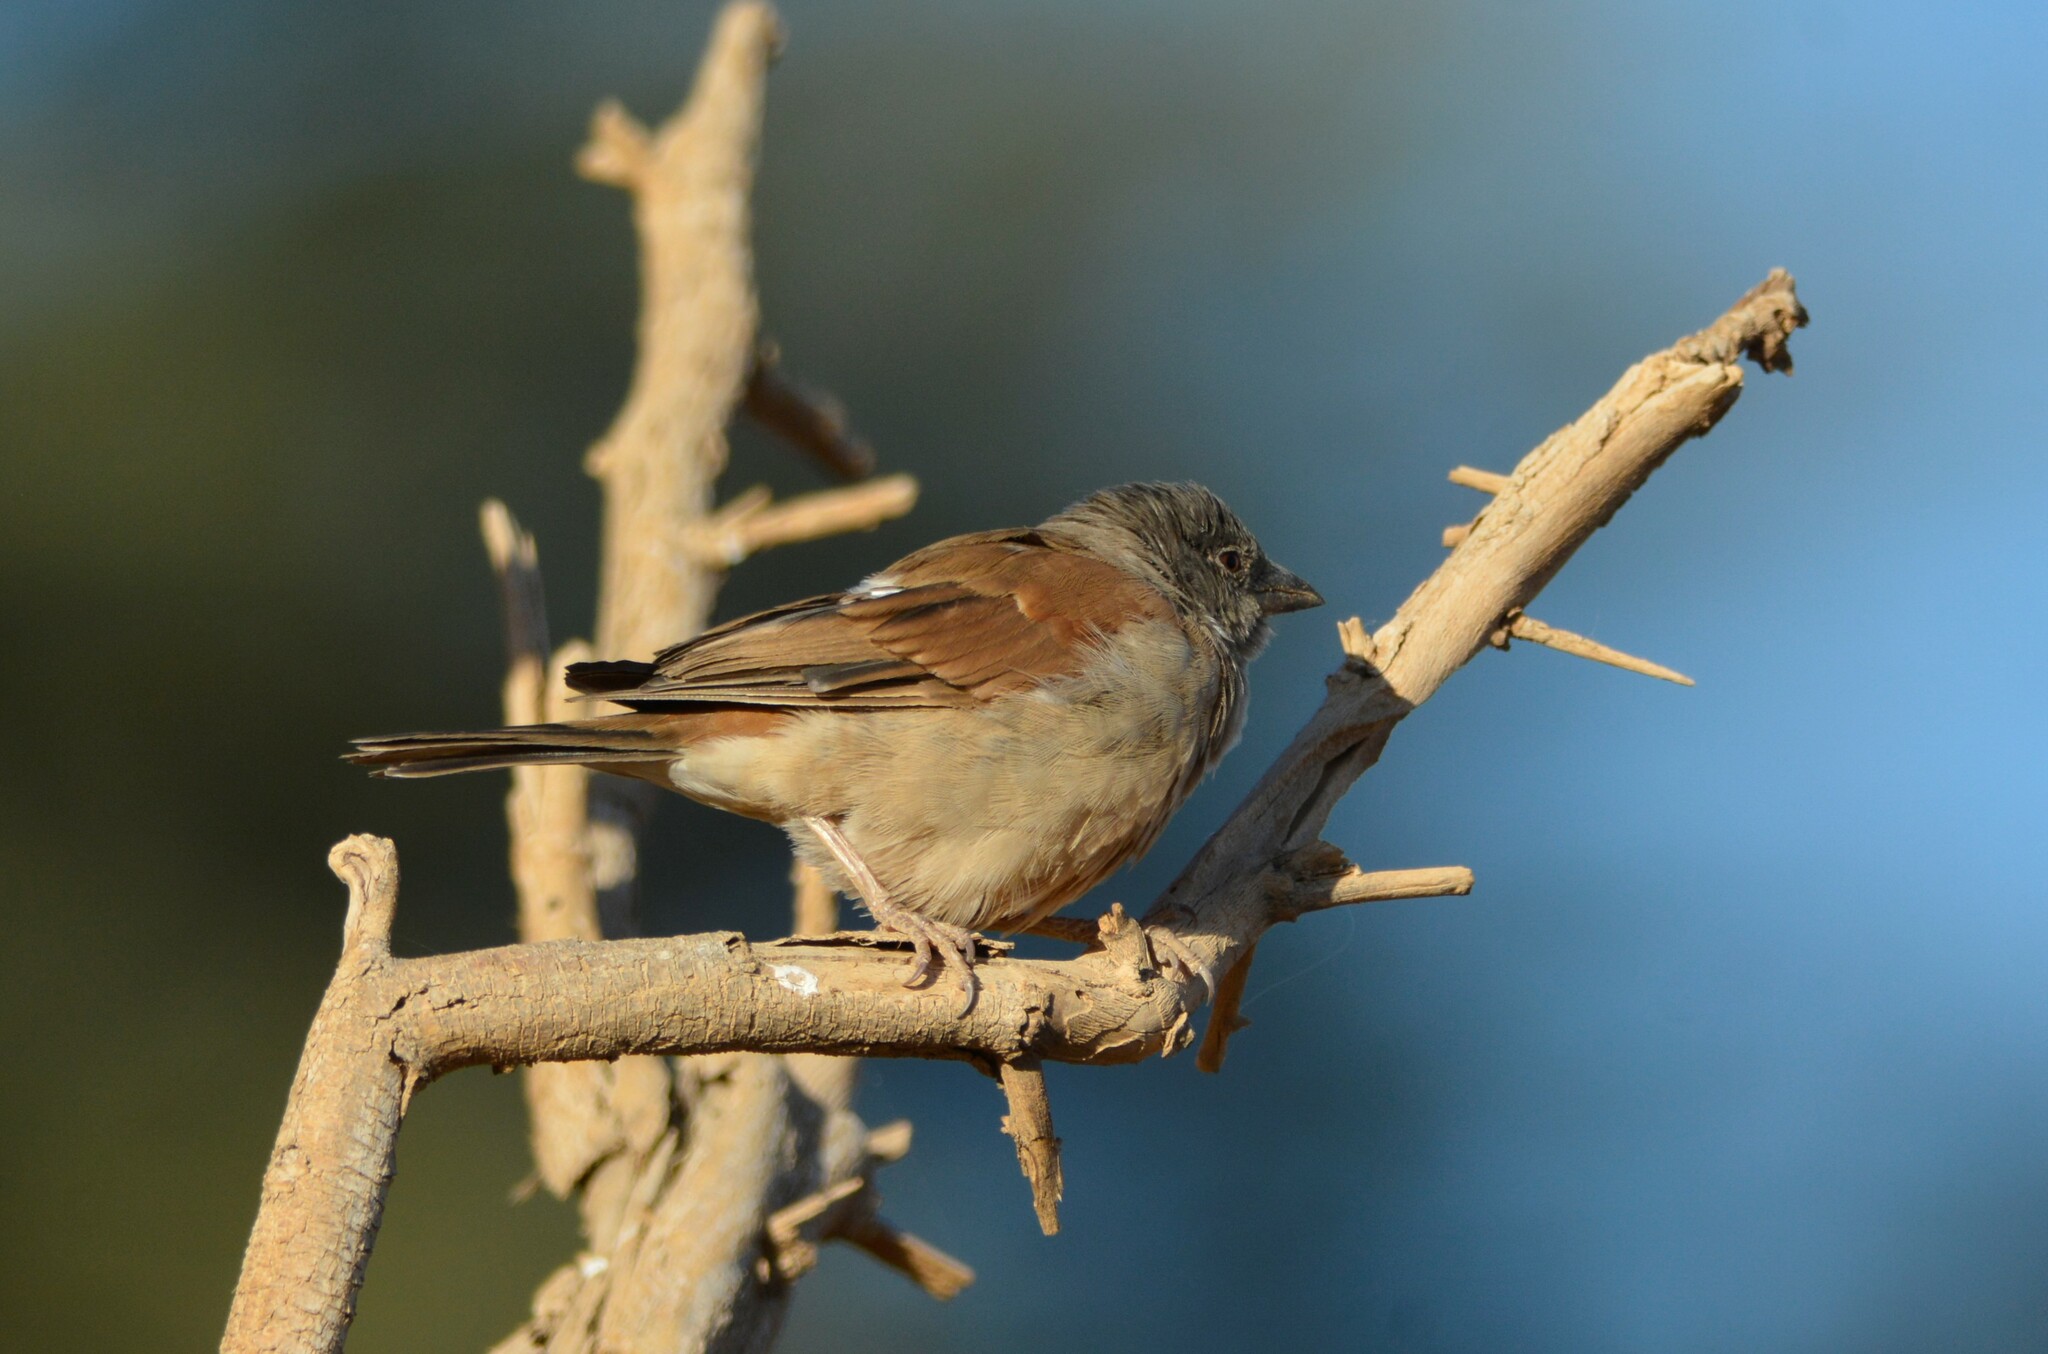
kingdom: Animalia
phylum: Chordata
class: Aves
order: Passeriformes
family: Passeridae
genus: Passer
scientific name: Passer griseus
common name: Northern grey-headed sparrow
